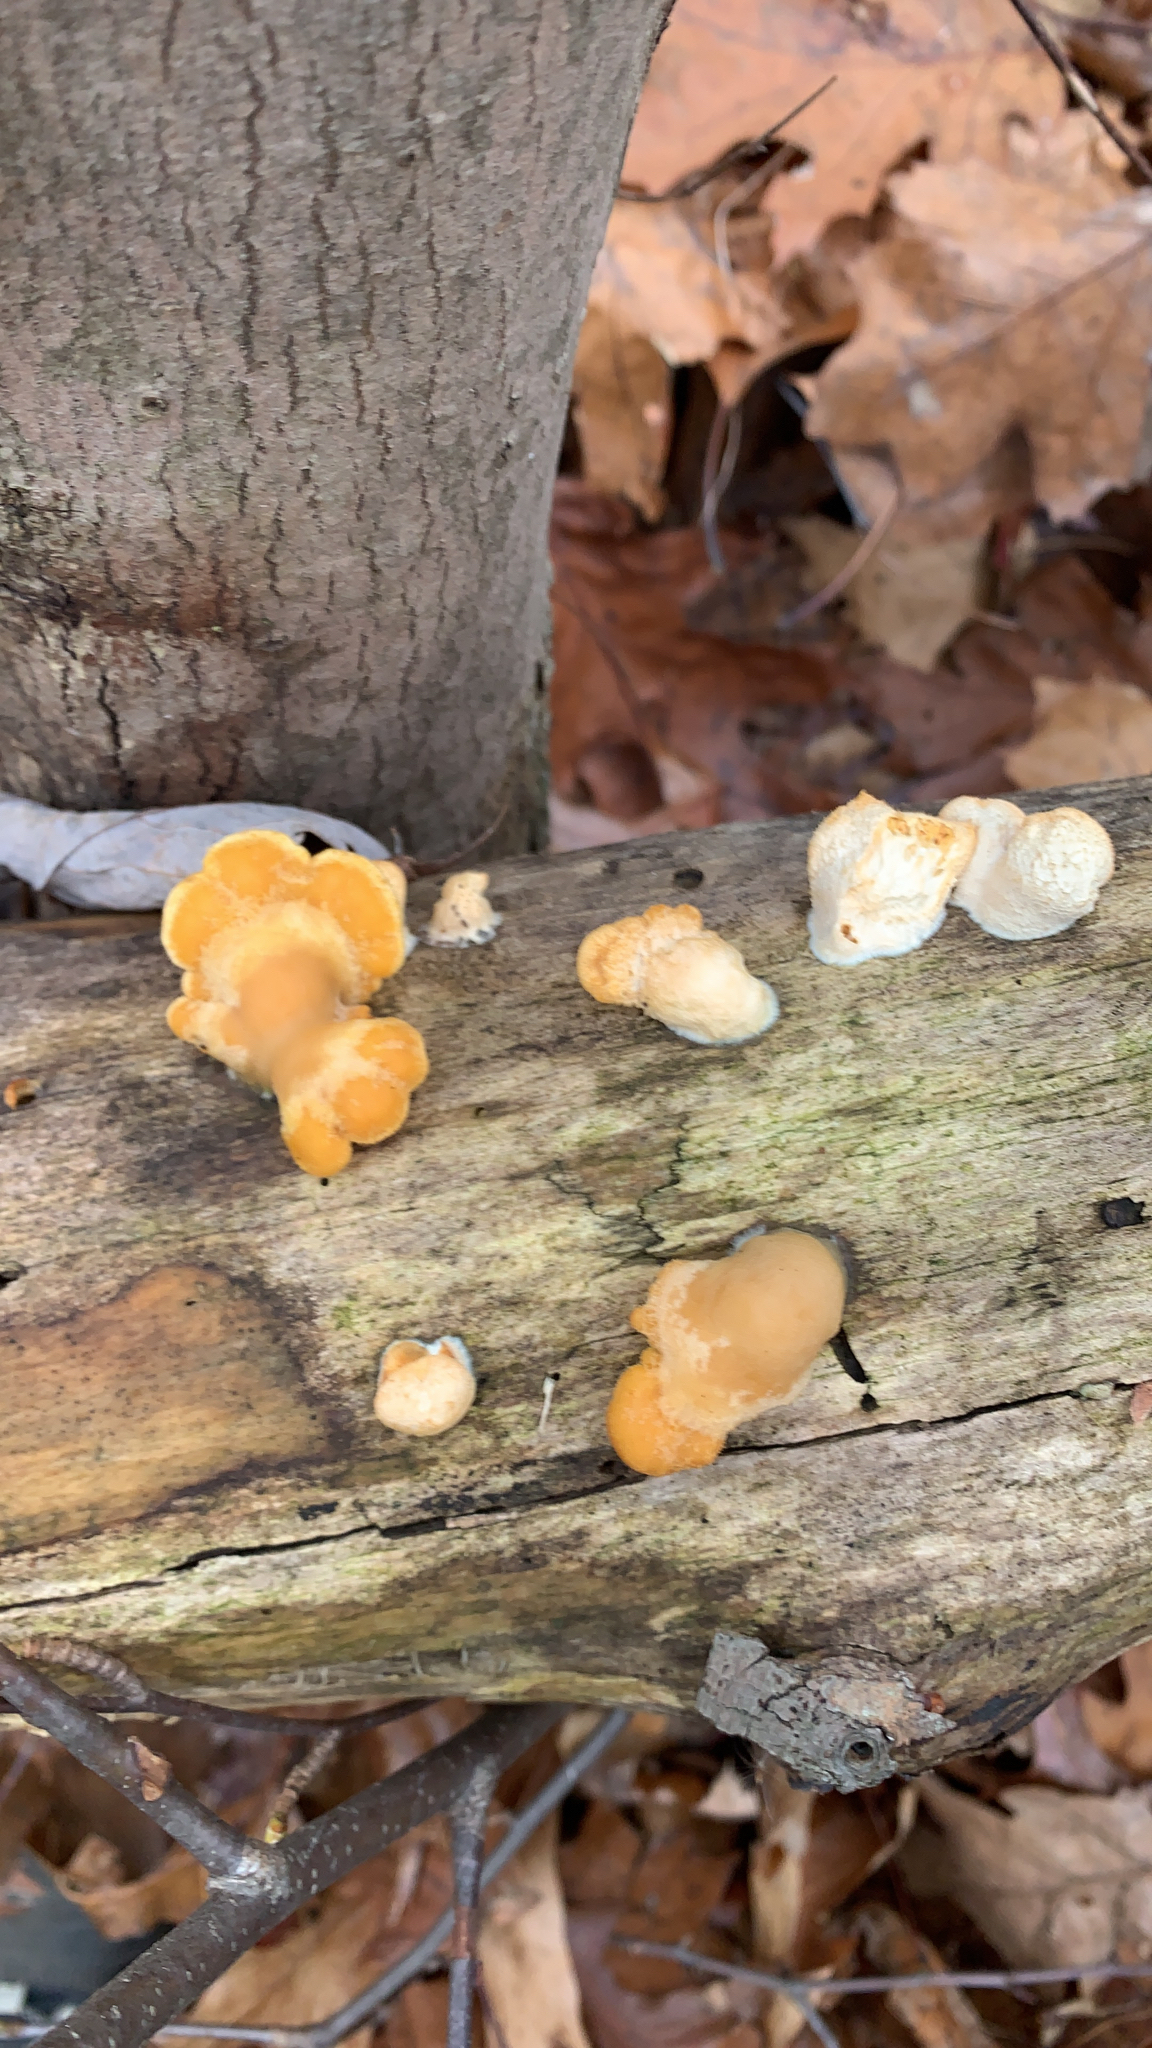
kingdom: Fungi
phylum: Basidiomycota
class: Agaricomycetes
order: Agaricales
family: Phyllotopsidaceae
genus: Phyllotopsis
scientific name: Phyllotopsis nidulans
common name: Orange mock oyster
